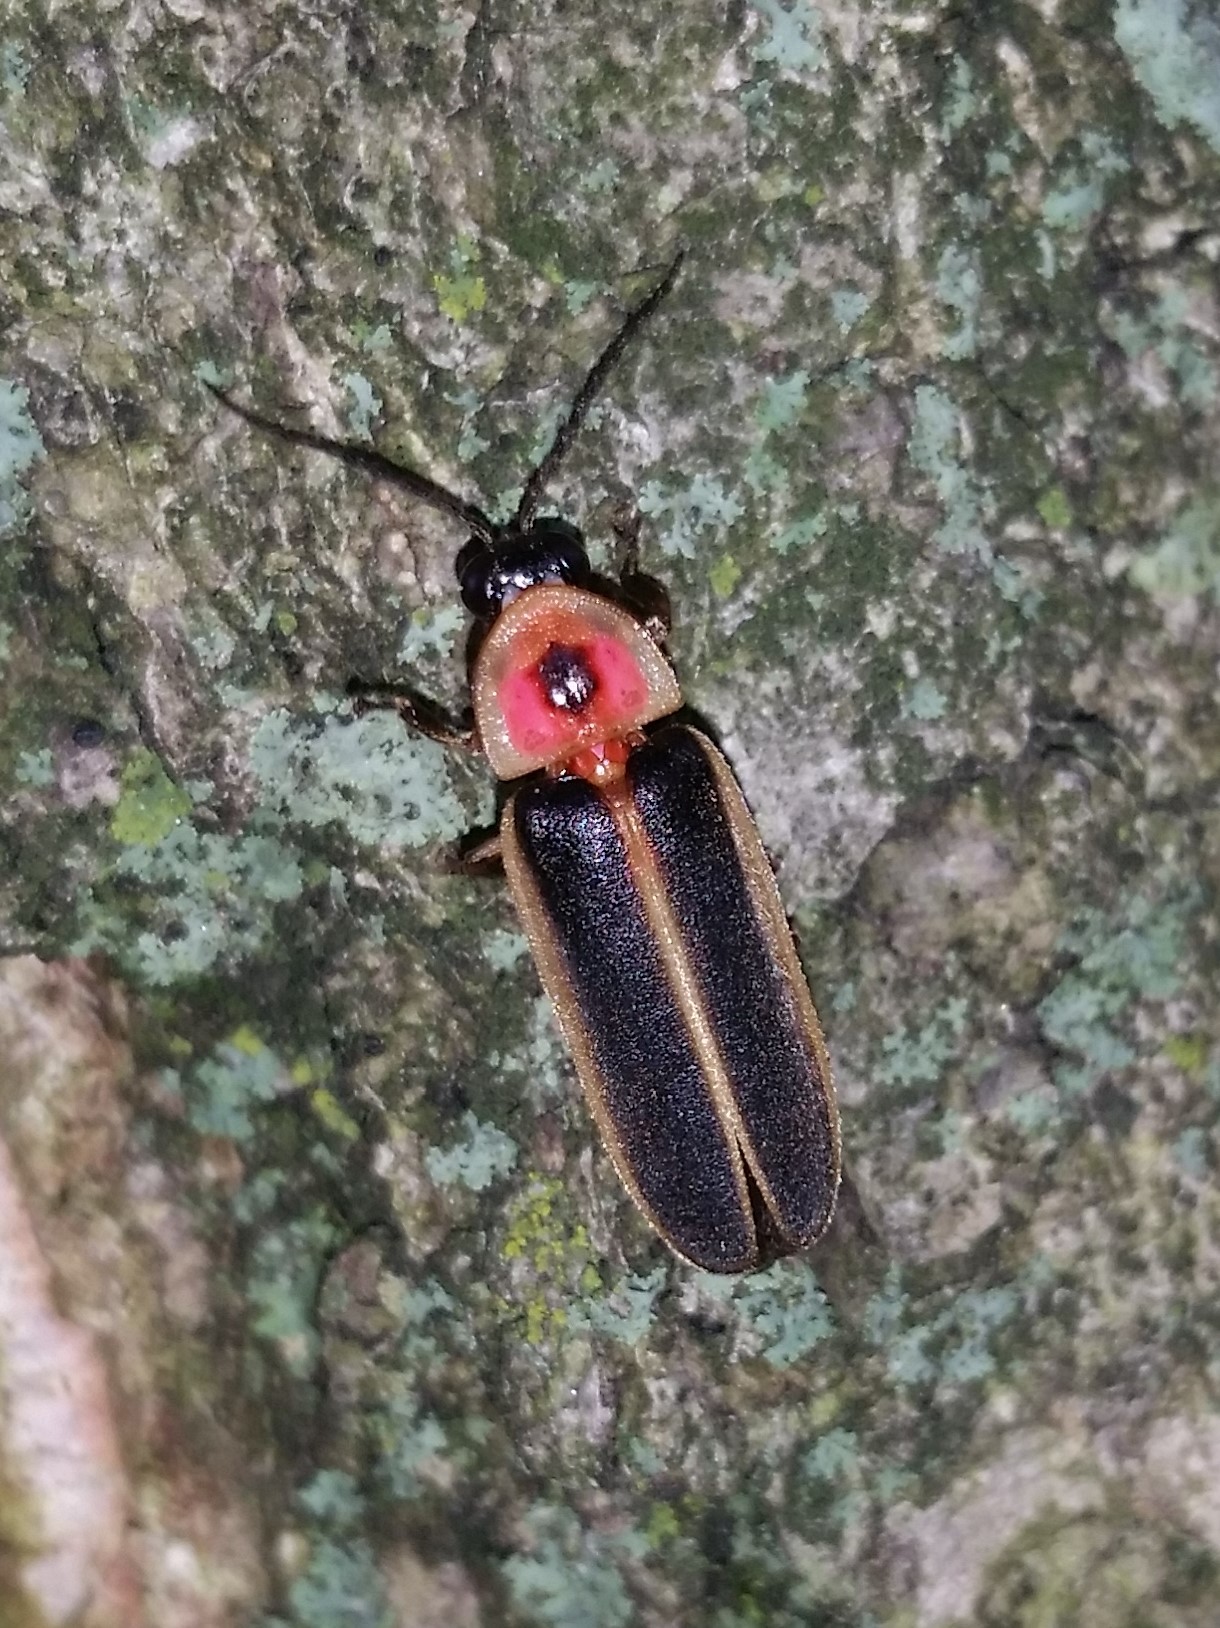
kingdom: Animalia
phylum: Arthropoda
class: Insecta
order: Coleoptera
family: Lampyridae
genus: Photinus
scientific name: Photinus pyralis
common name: Big dipper firefly
